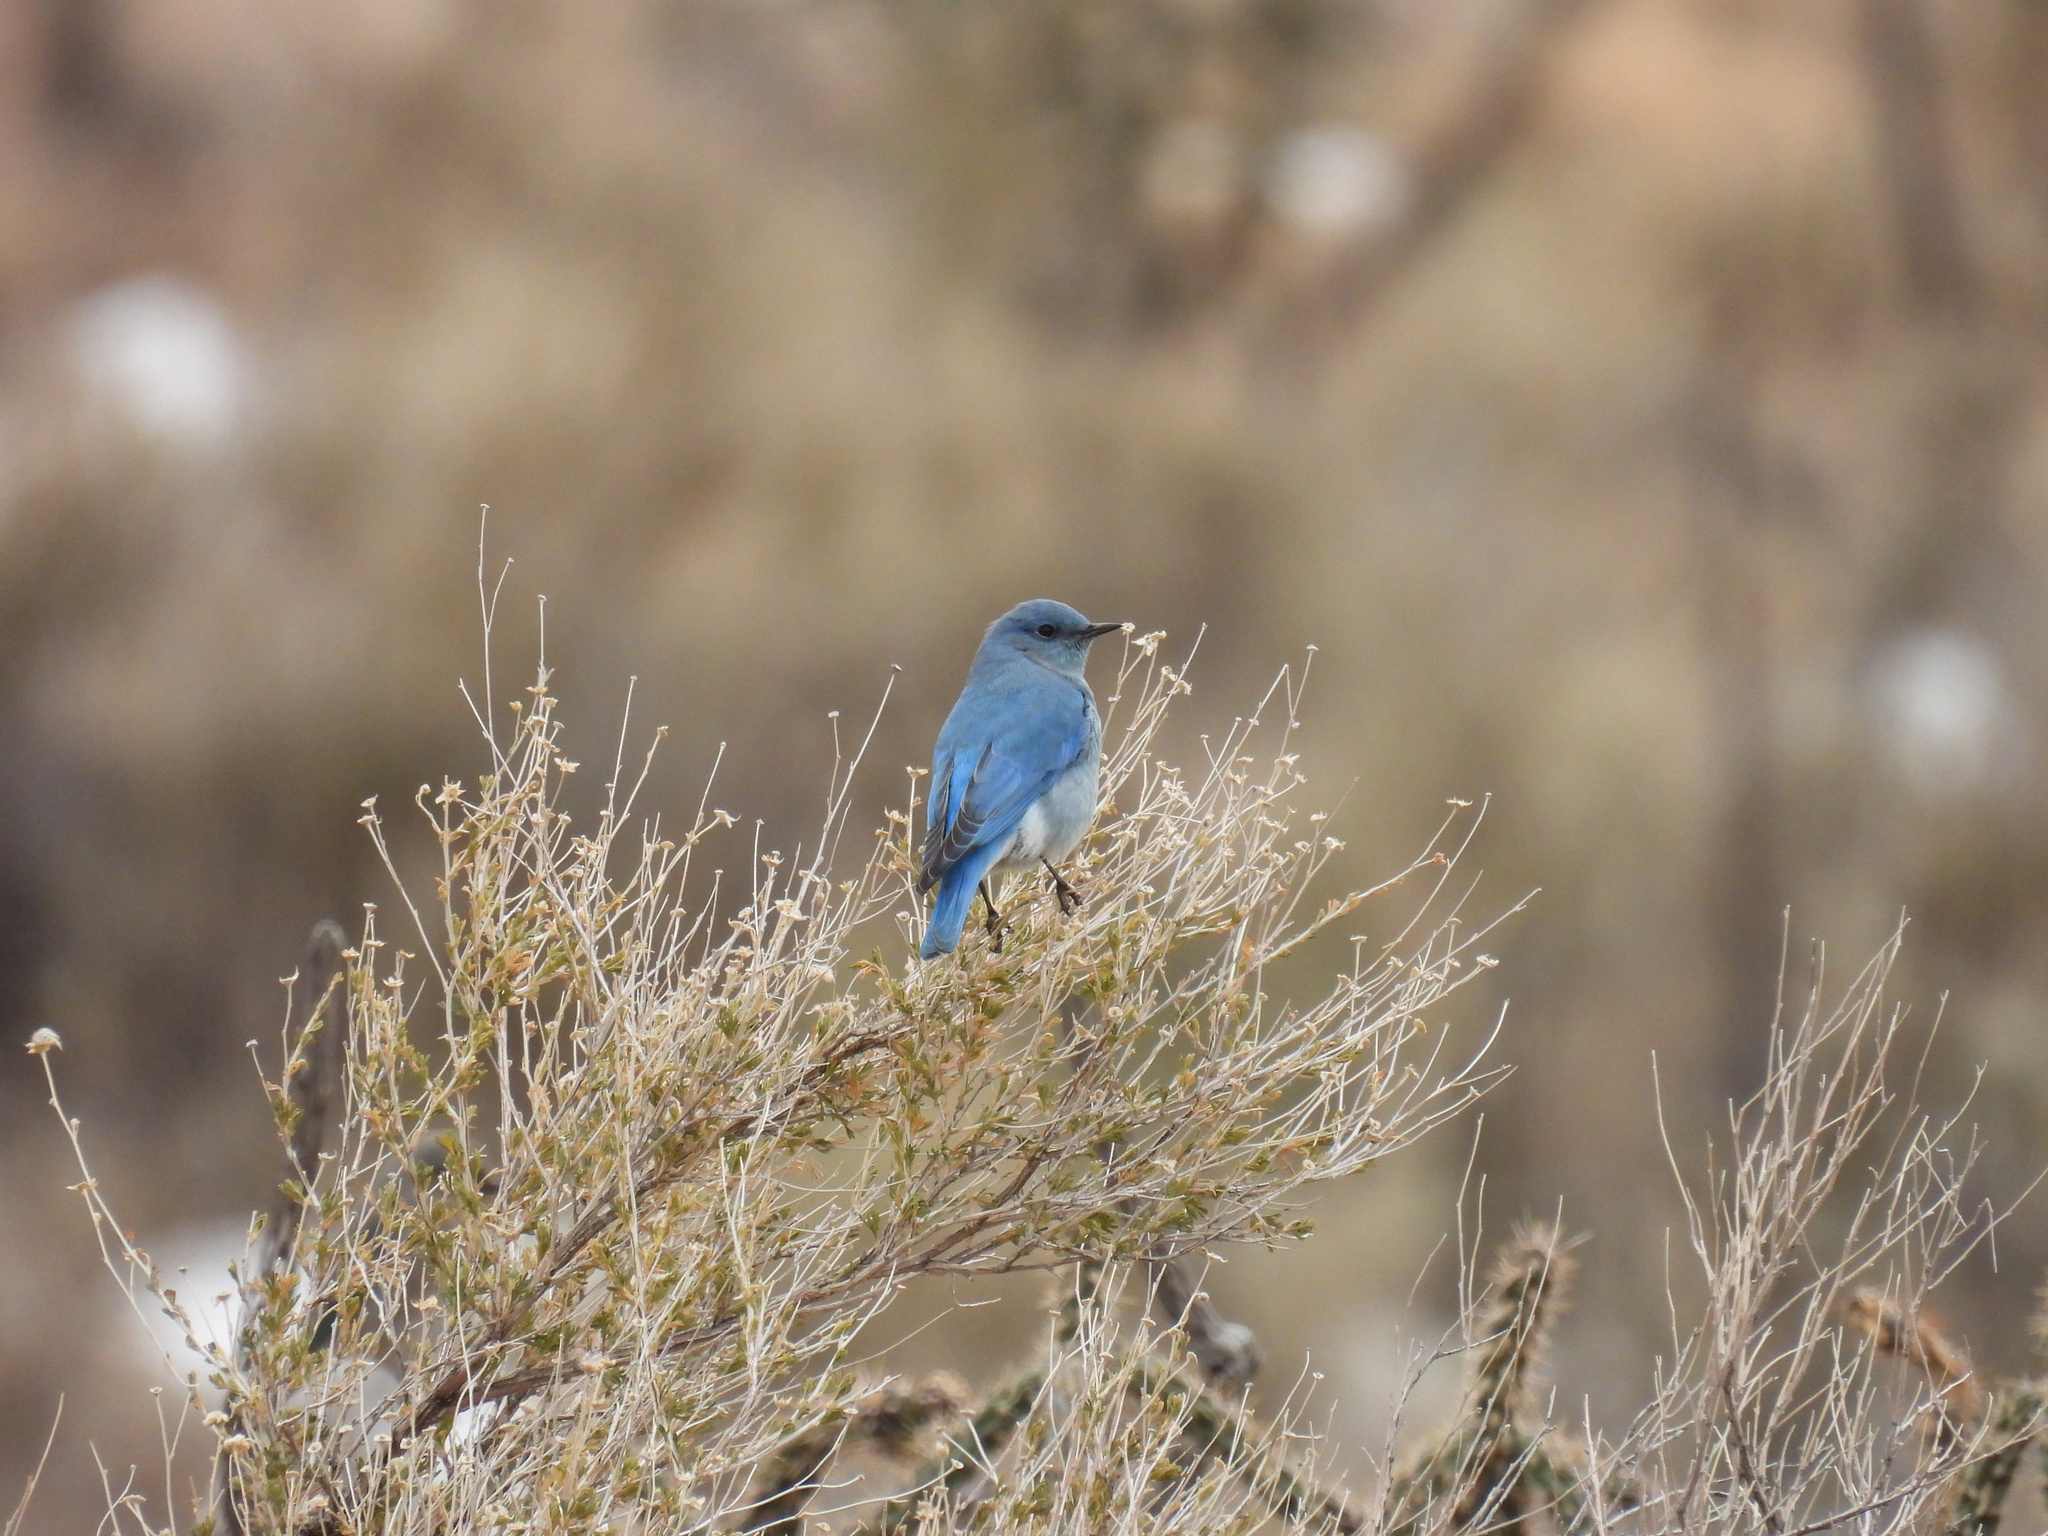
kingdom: Animalia
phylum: Chordata
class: Aves
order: Passeriformes
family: Turdidae
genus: Sialia
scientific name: Sialia currucoides
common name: Mountain bluebird
